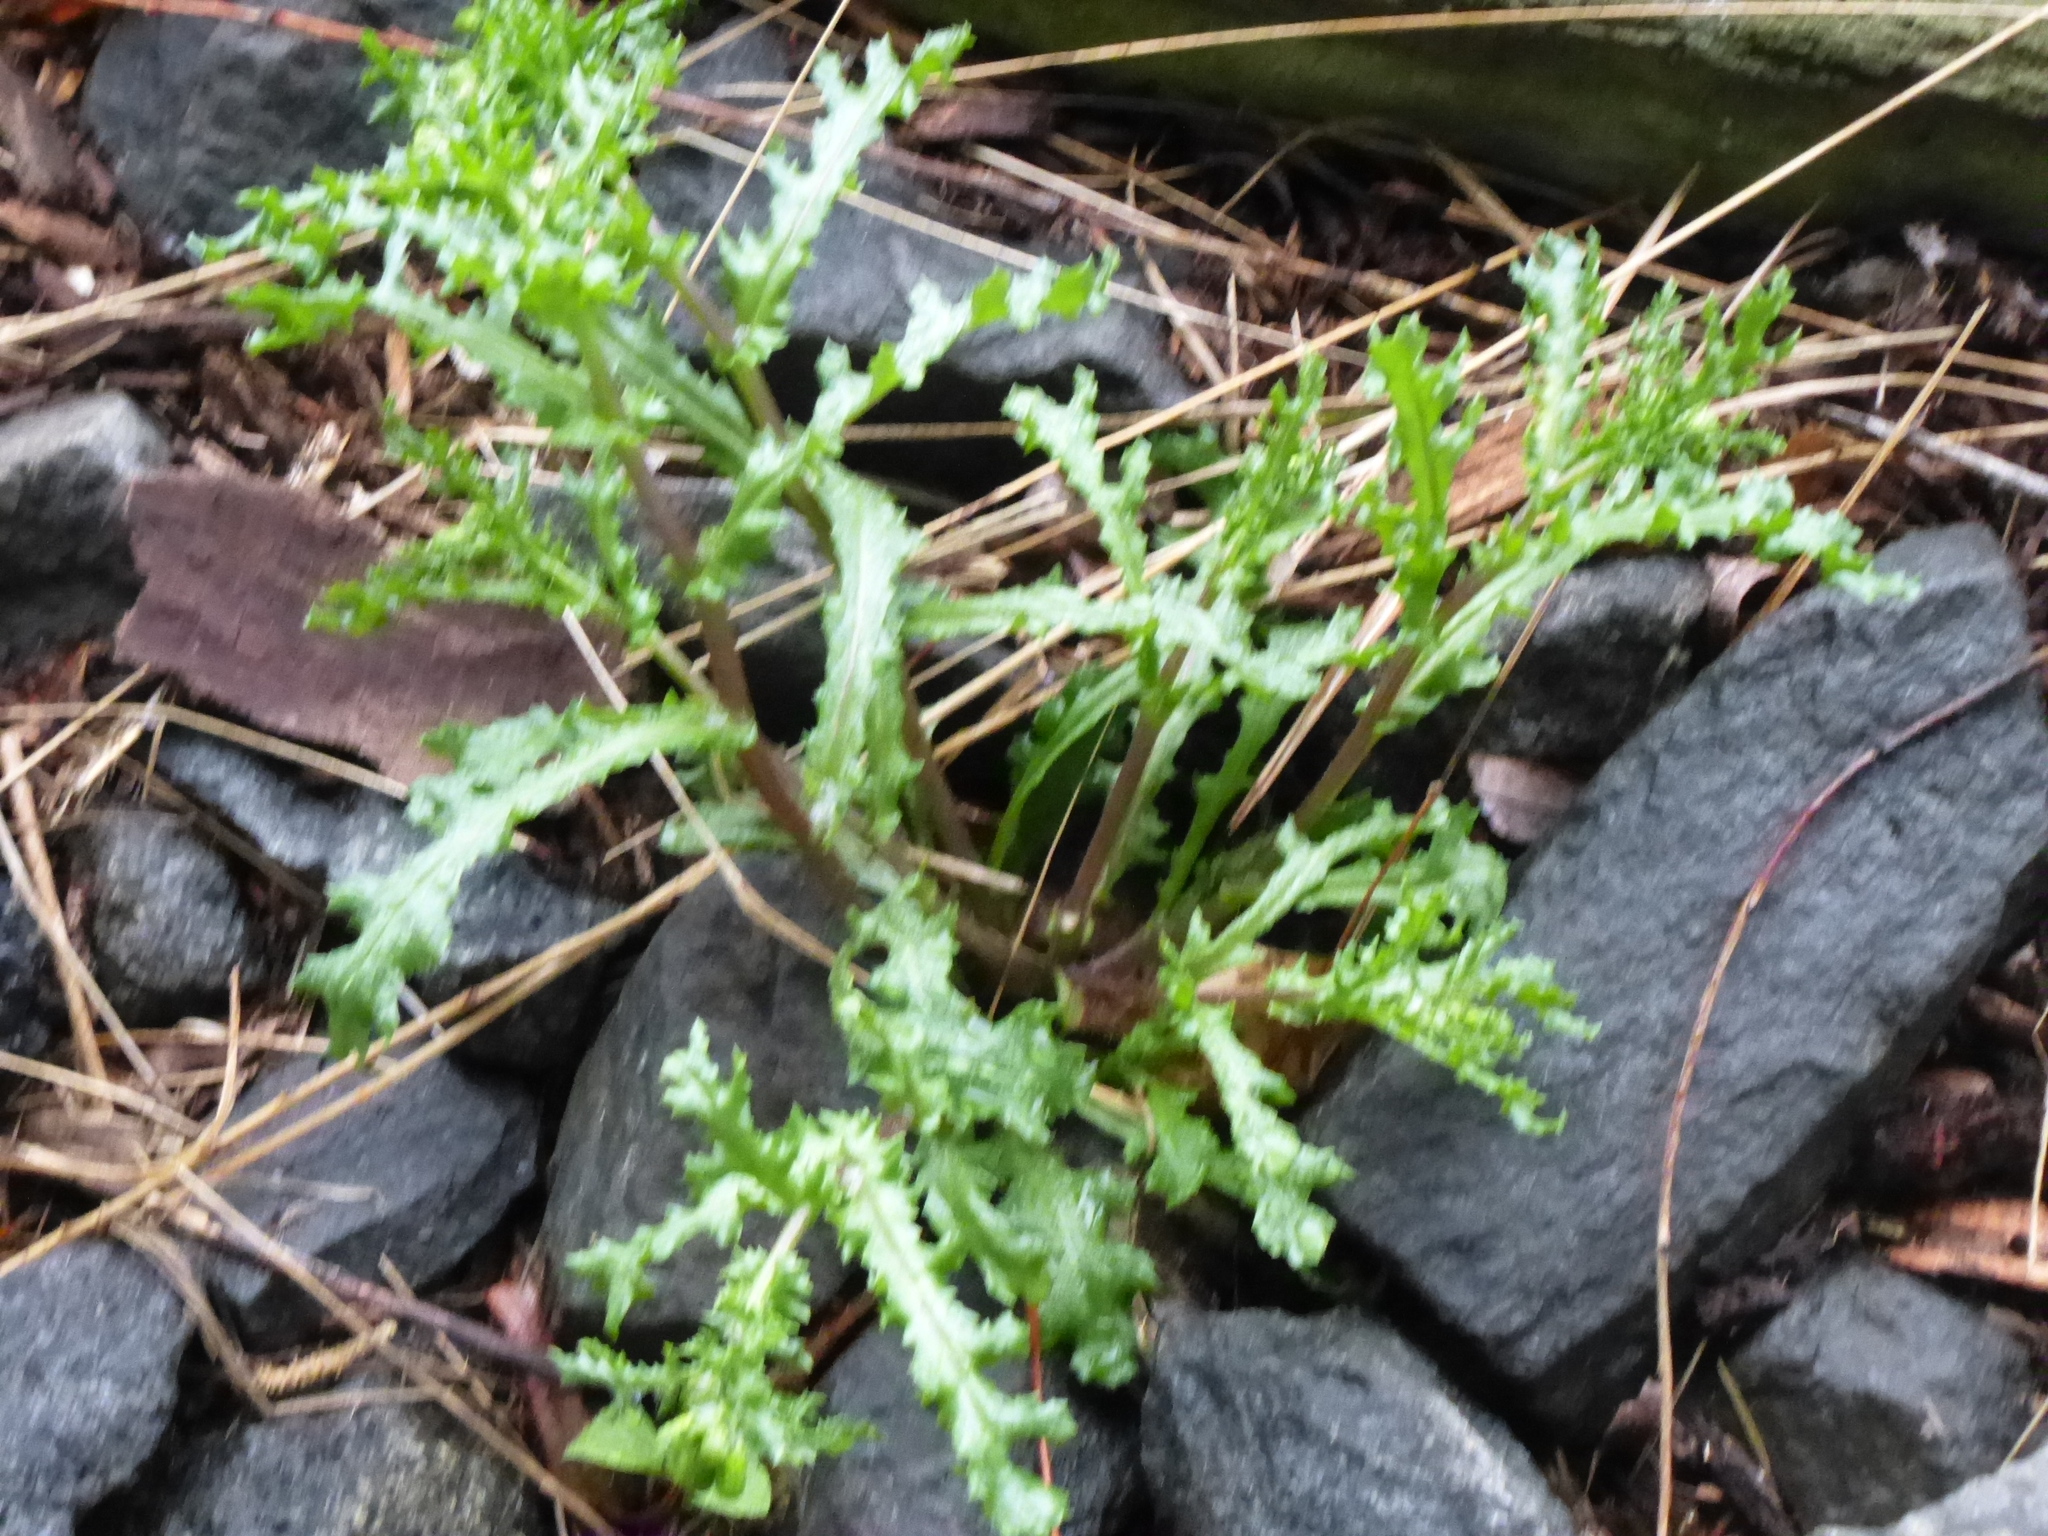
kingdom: Plantae
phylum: Tracheophyta
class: Magnoliopsida
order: Asterales
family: Asteraceae
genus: Senecio
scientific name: Senecio vulgaris
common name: Old-man-in-the-spring
